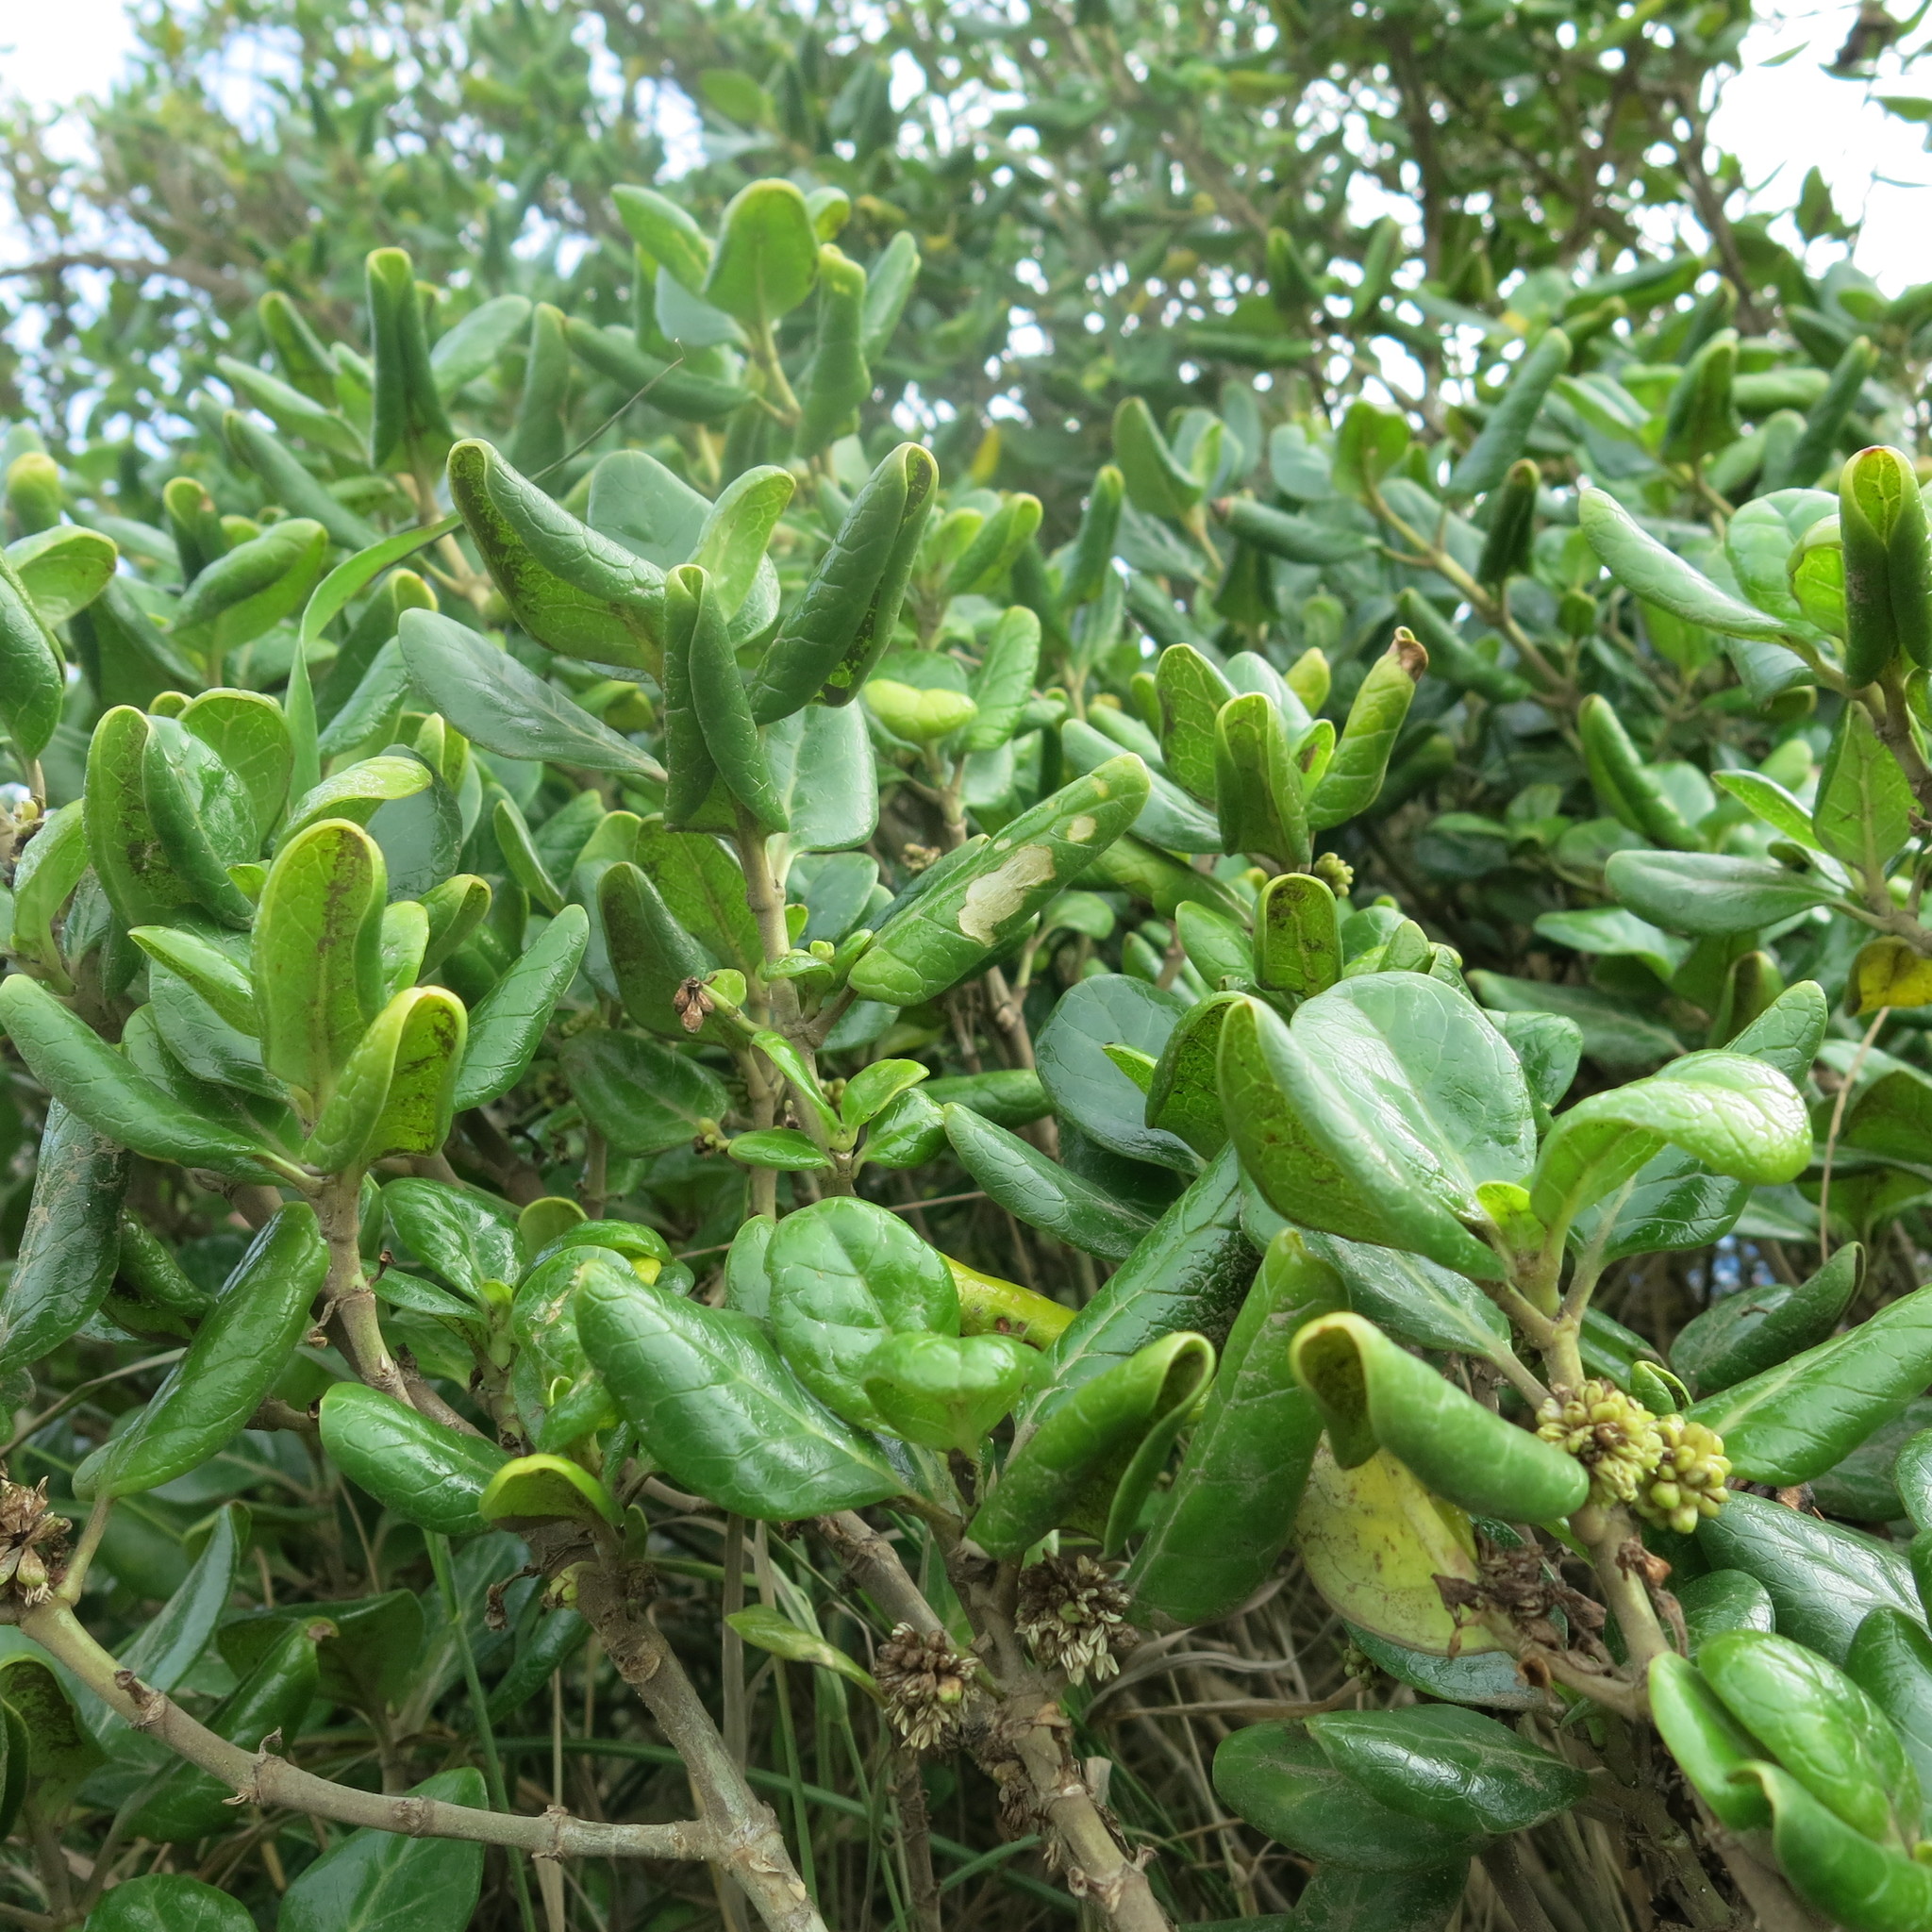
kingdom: Plantae
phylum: Tracheophyta
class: Magnoliopsida
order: Gentianales
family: Rubiaceae
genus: Coprosma
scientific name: Coprosma repens
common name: Tree bedstraw
